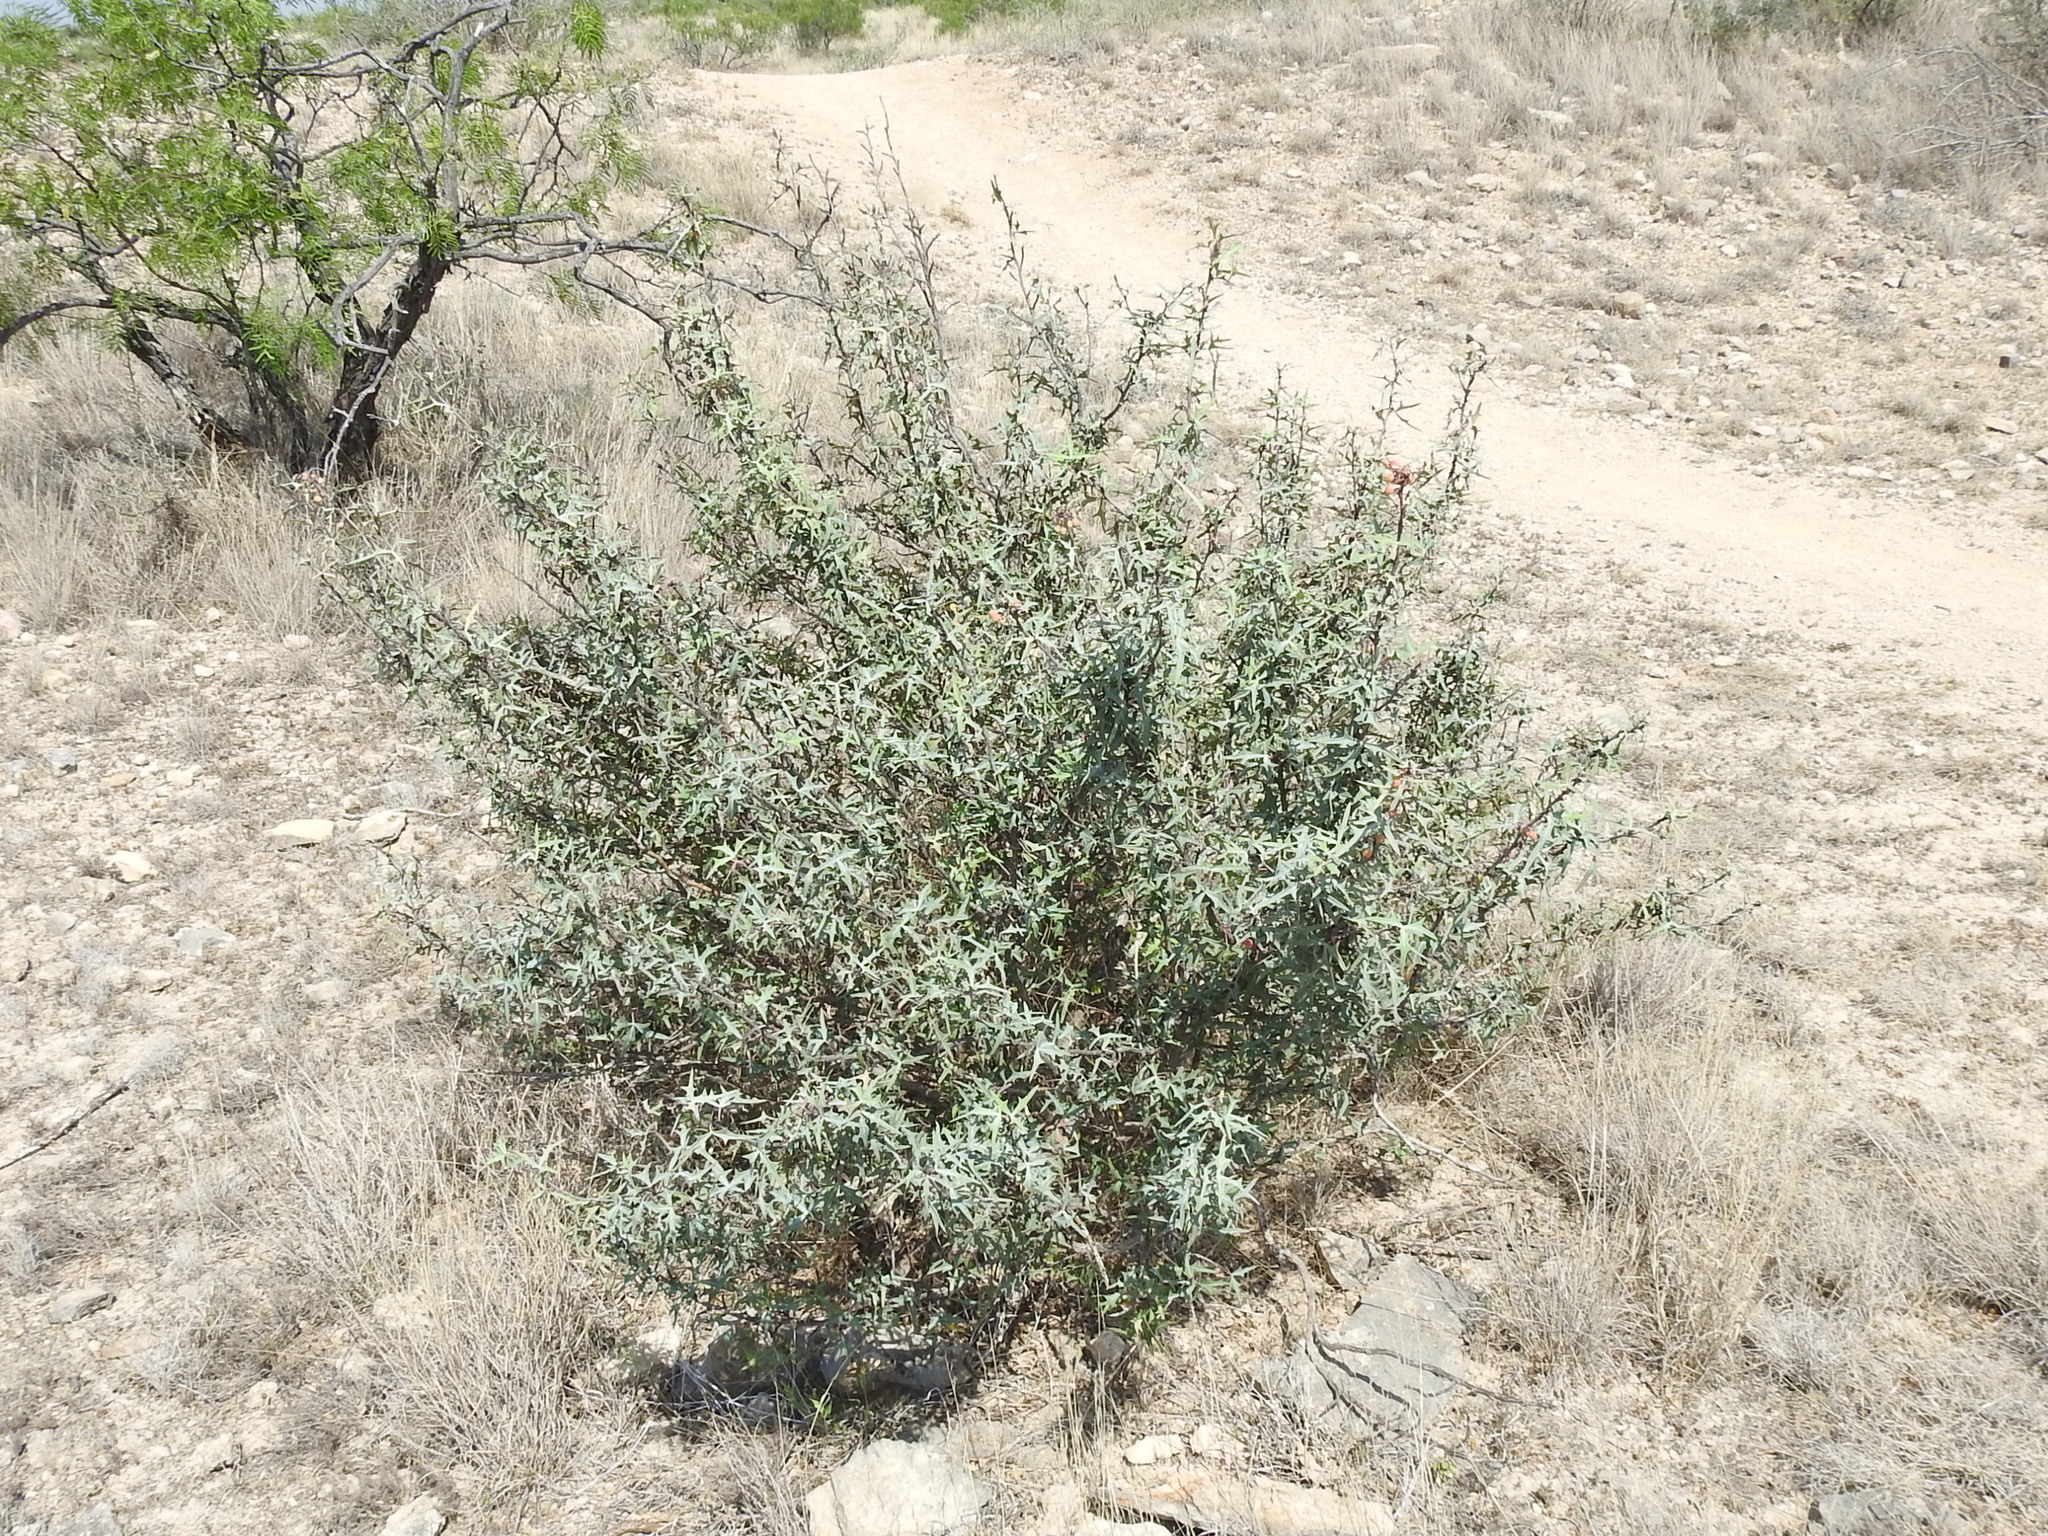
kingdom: Plantae
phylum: Tracheophyta
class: Magnoliopsida
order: Ranunculales
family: Berberidaceae
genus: Alloberberis
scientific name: Alloberberis trifoliolata
